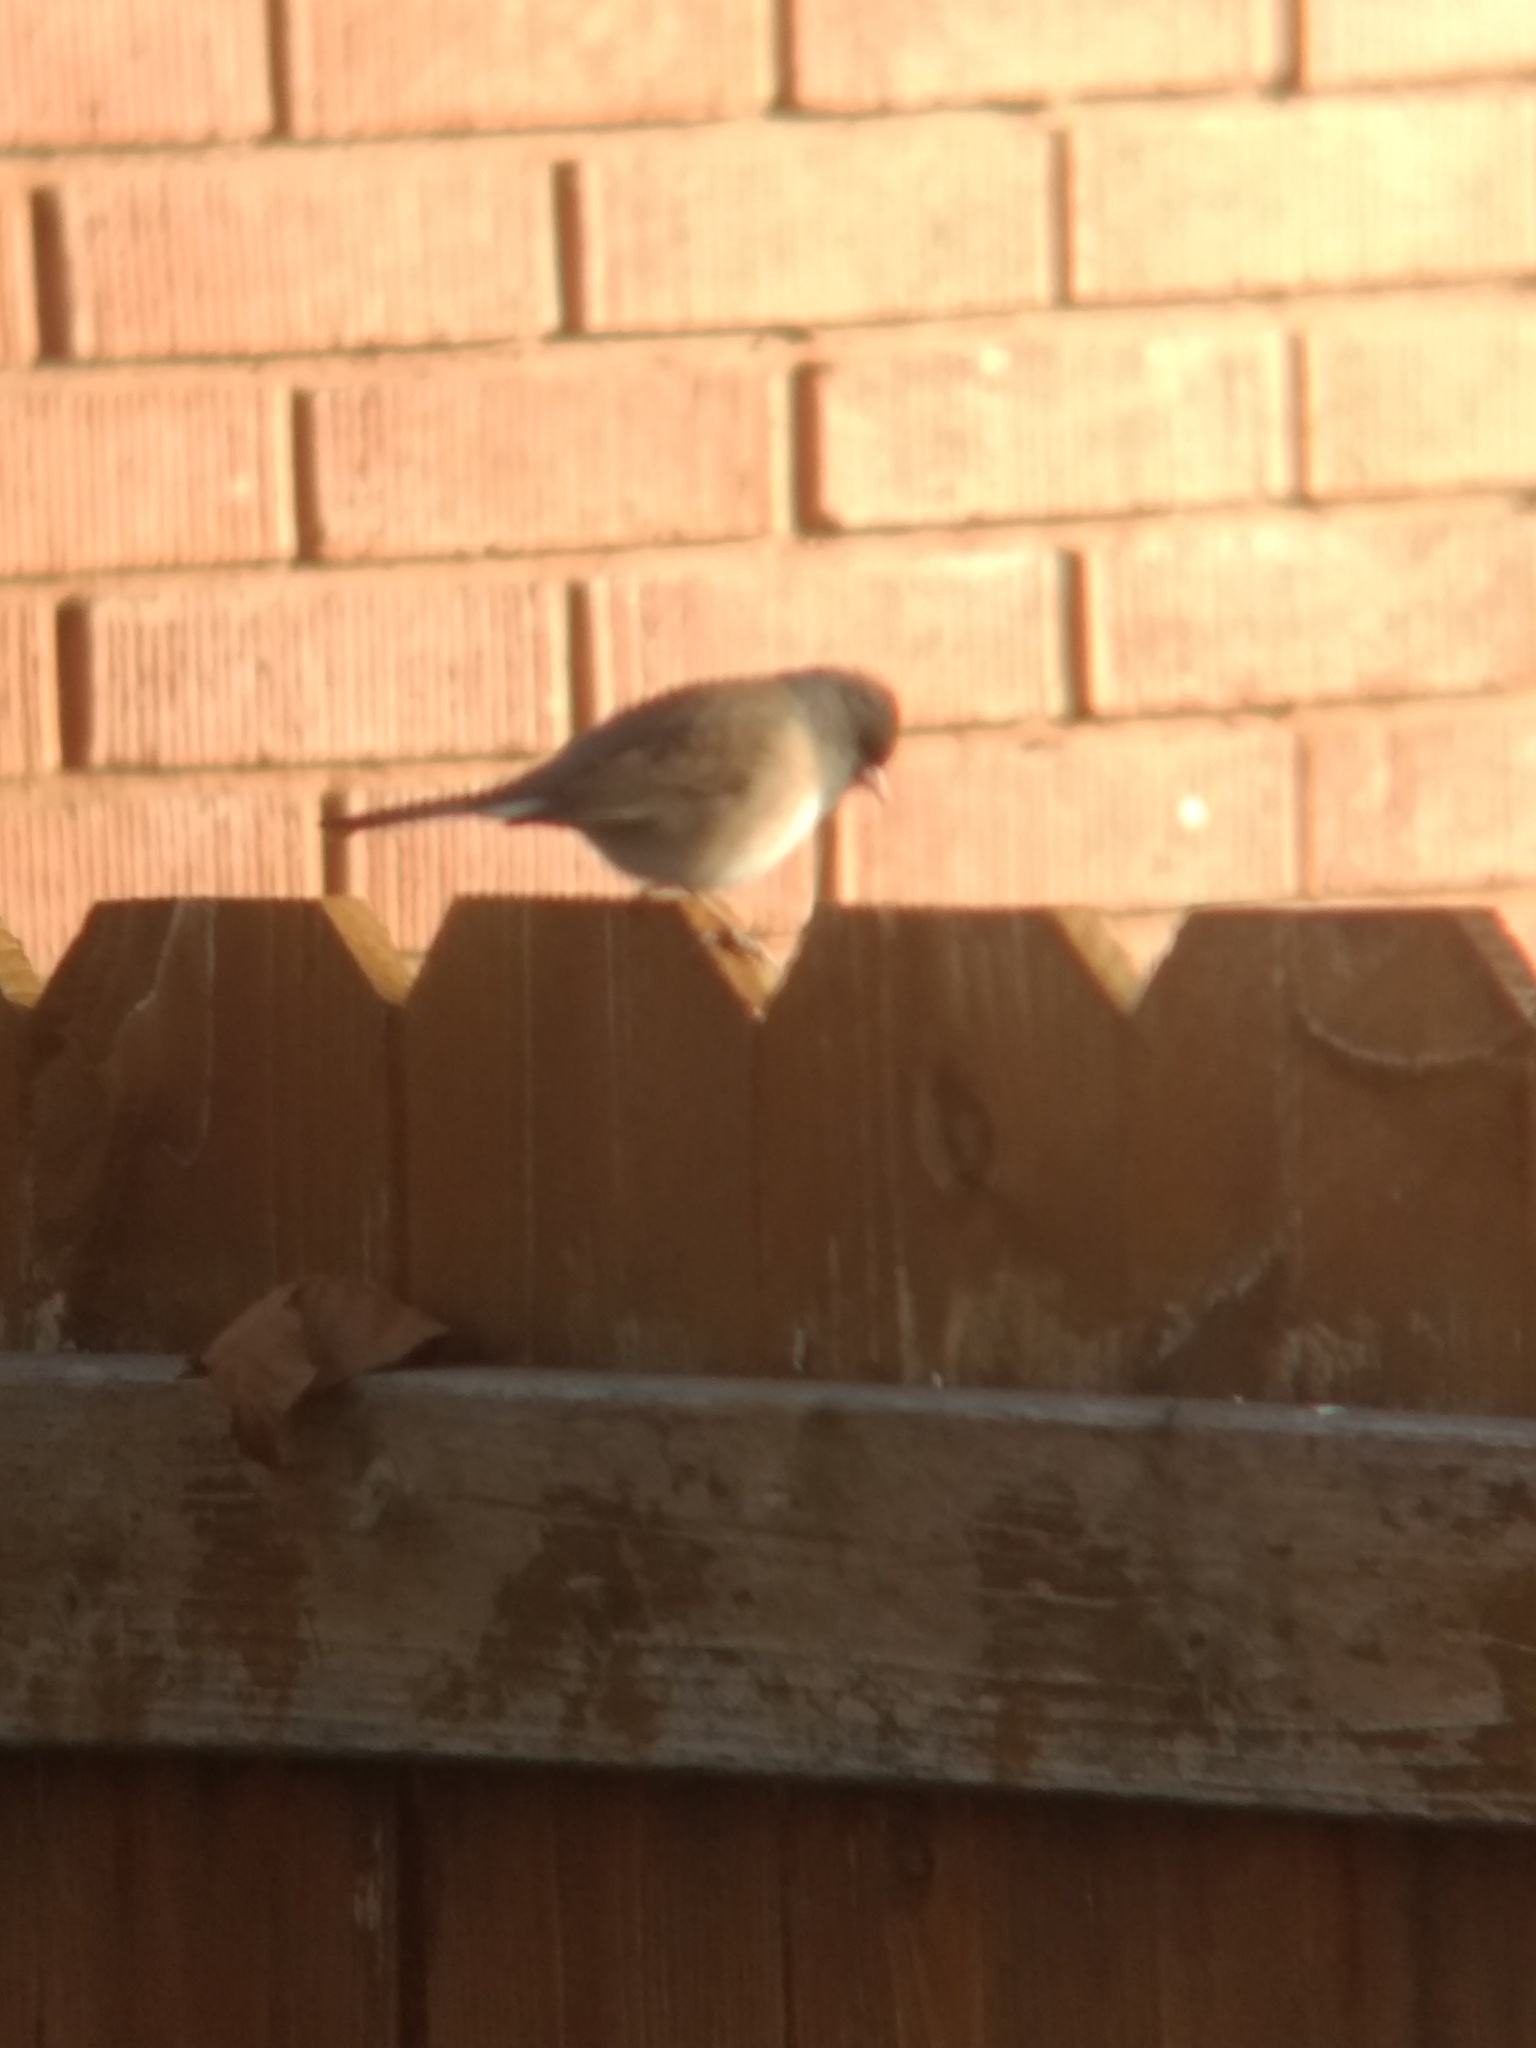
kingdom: Animalia
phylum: Chordata
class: Aves
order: Passeriformes
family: Passerellidae
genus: Junco
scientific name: Junco hyemalis
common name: Dark-eyed junco
